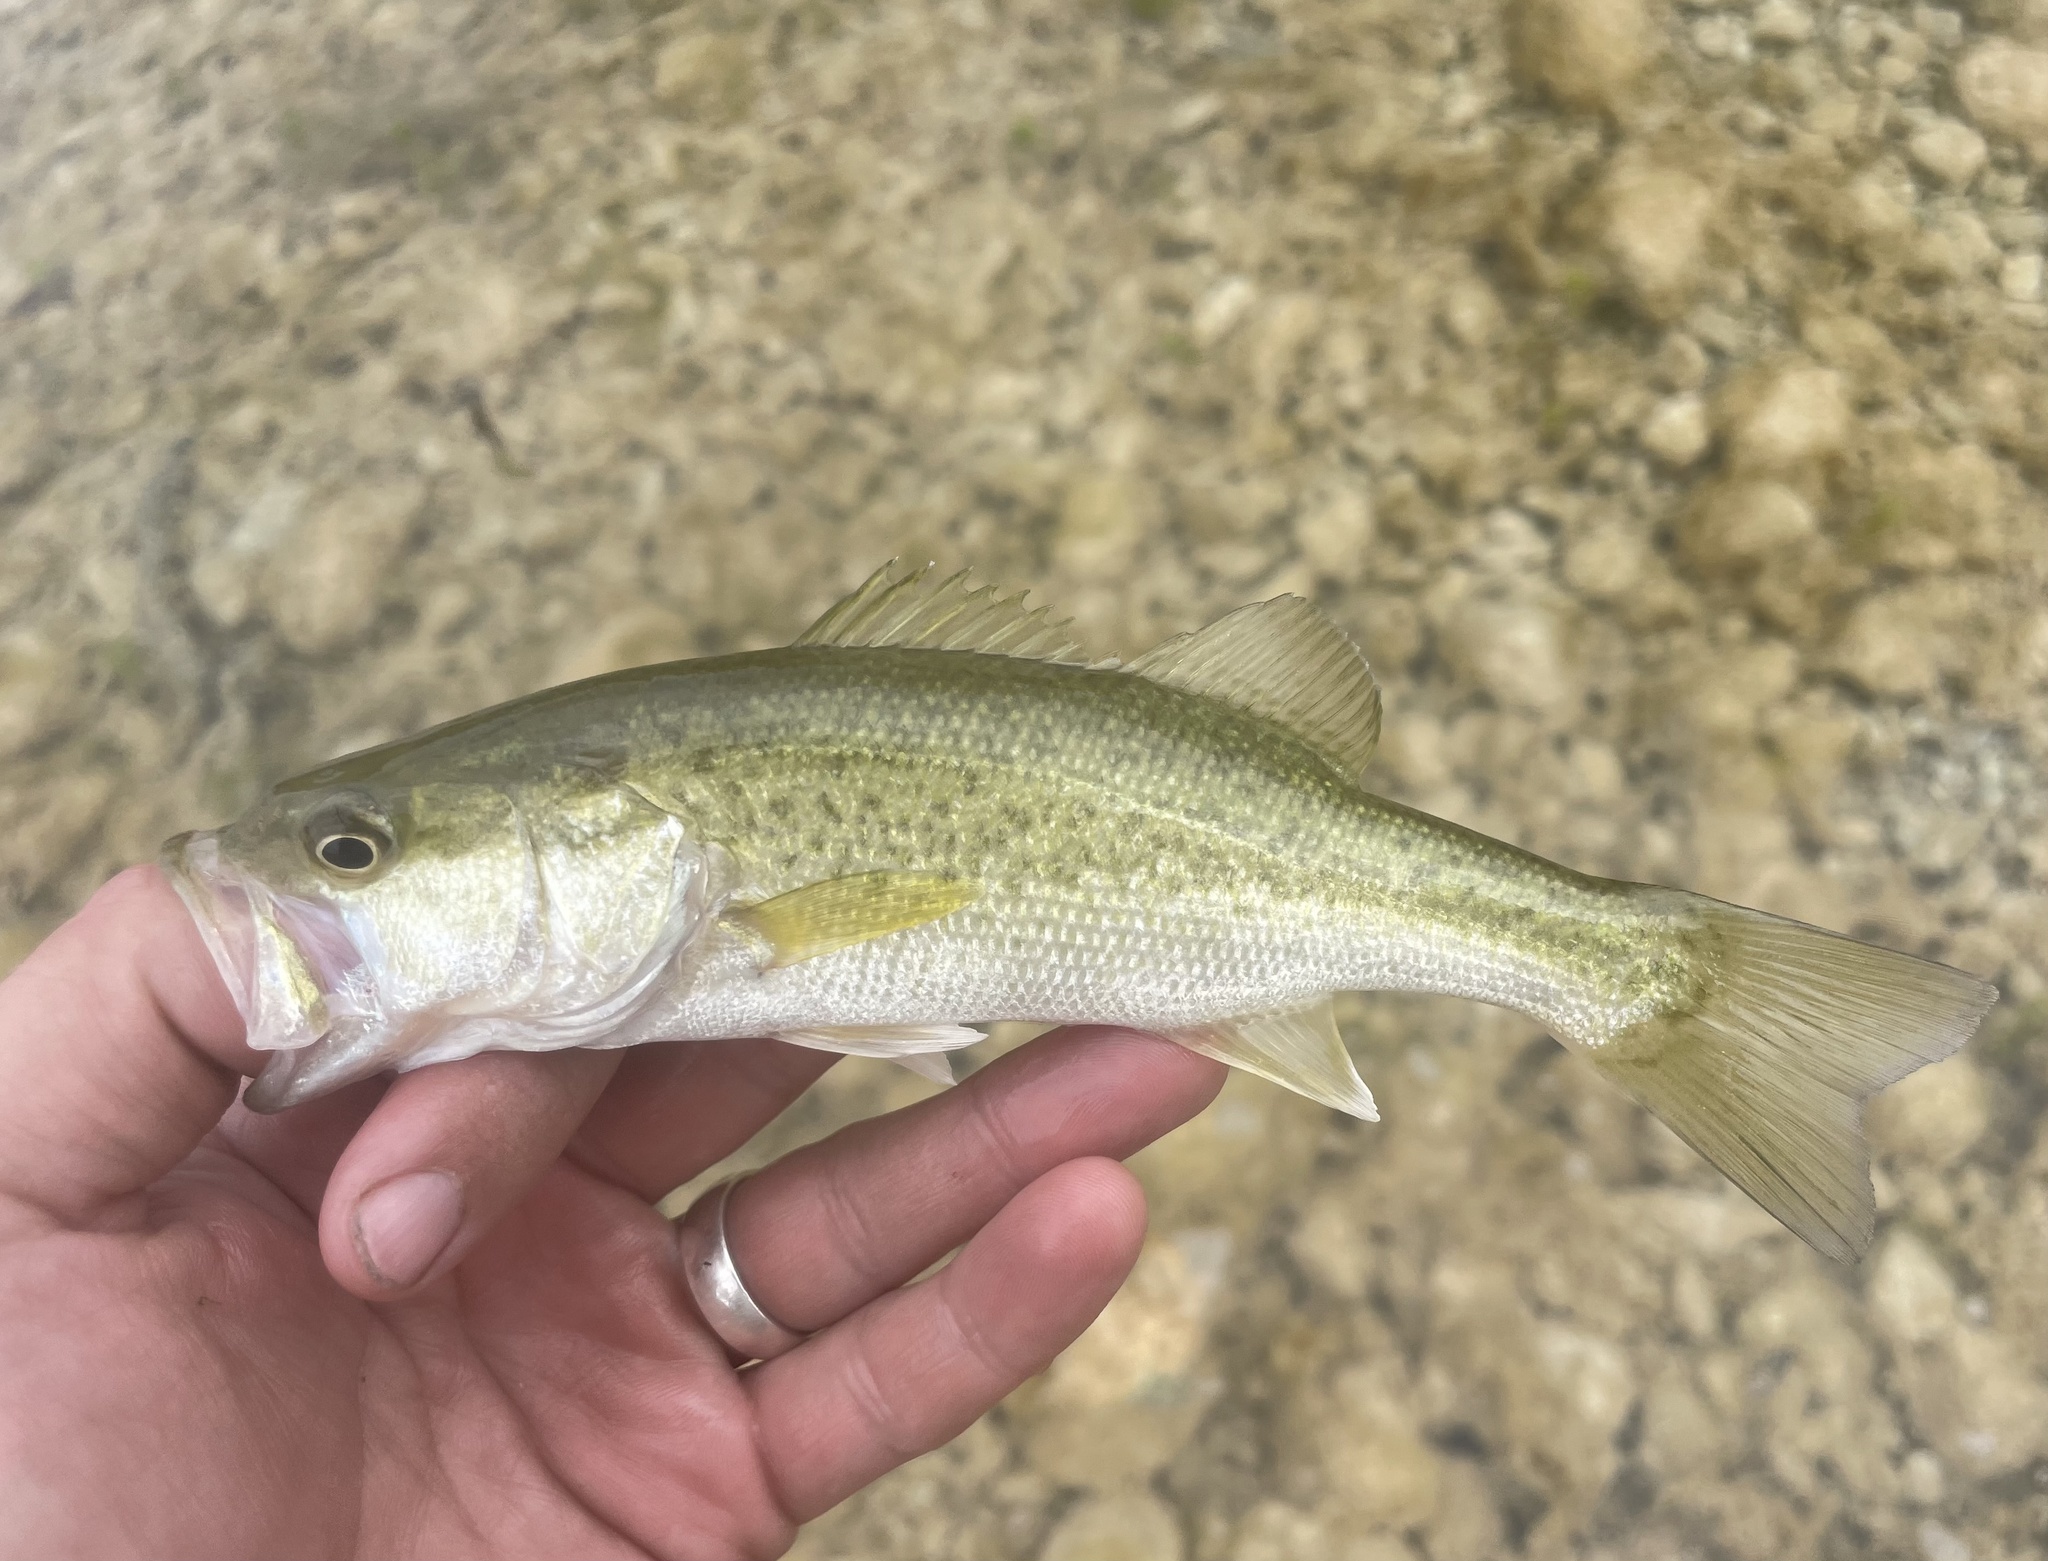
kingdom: Animalia
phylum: Chordata
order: Perciformes
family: Centrarchidae
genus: Micropterus
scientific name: Micropterus
